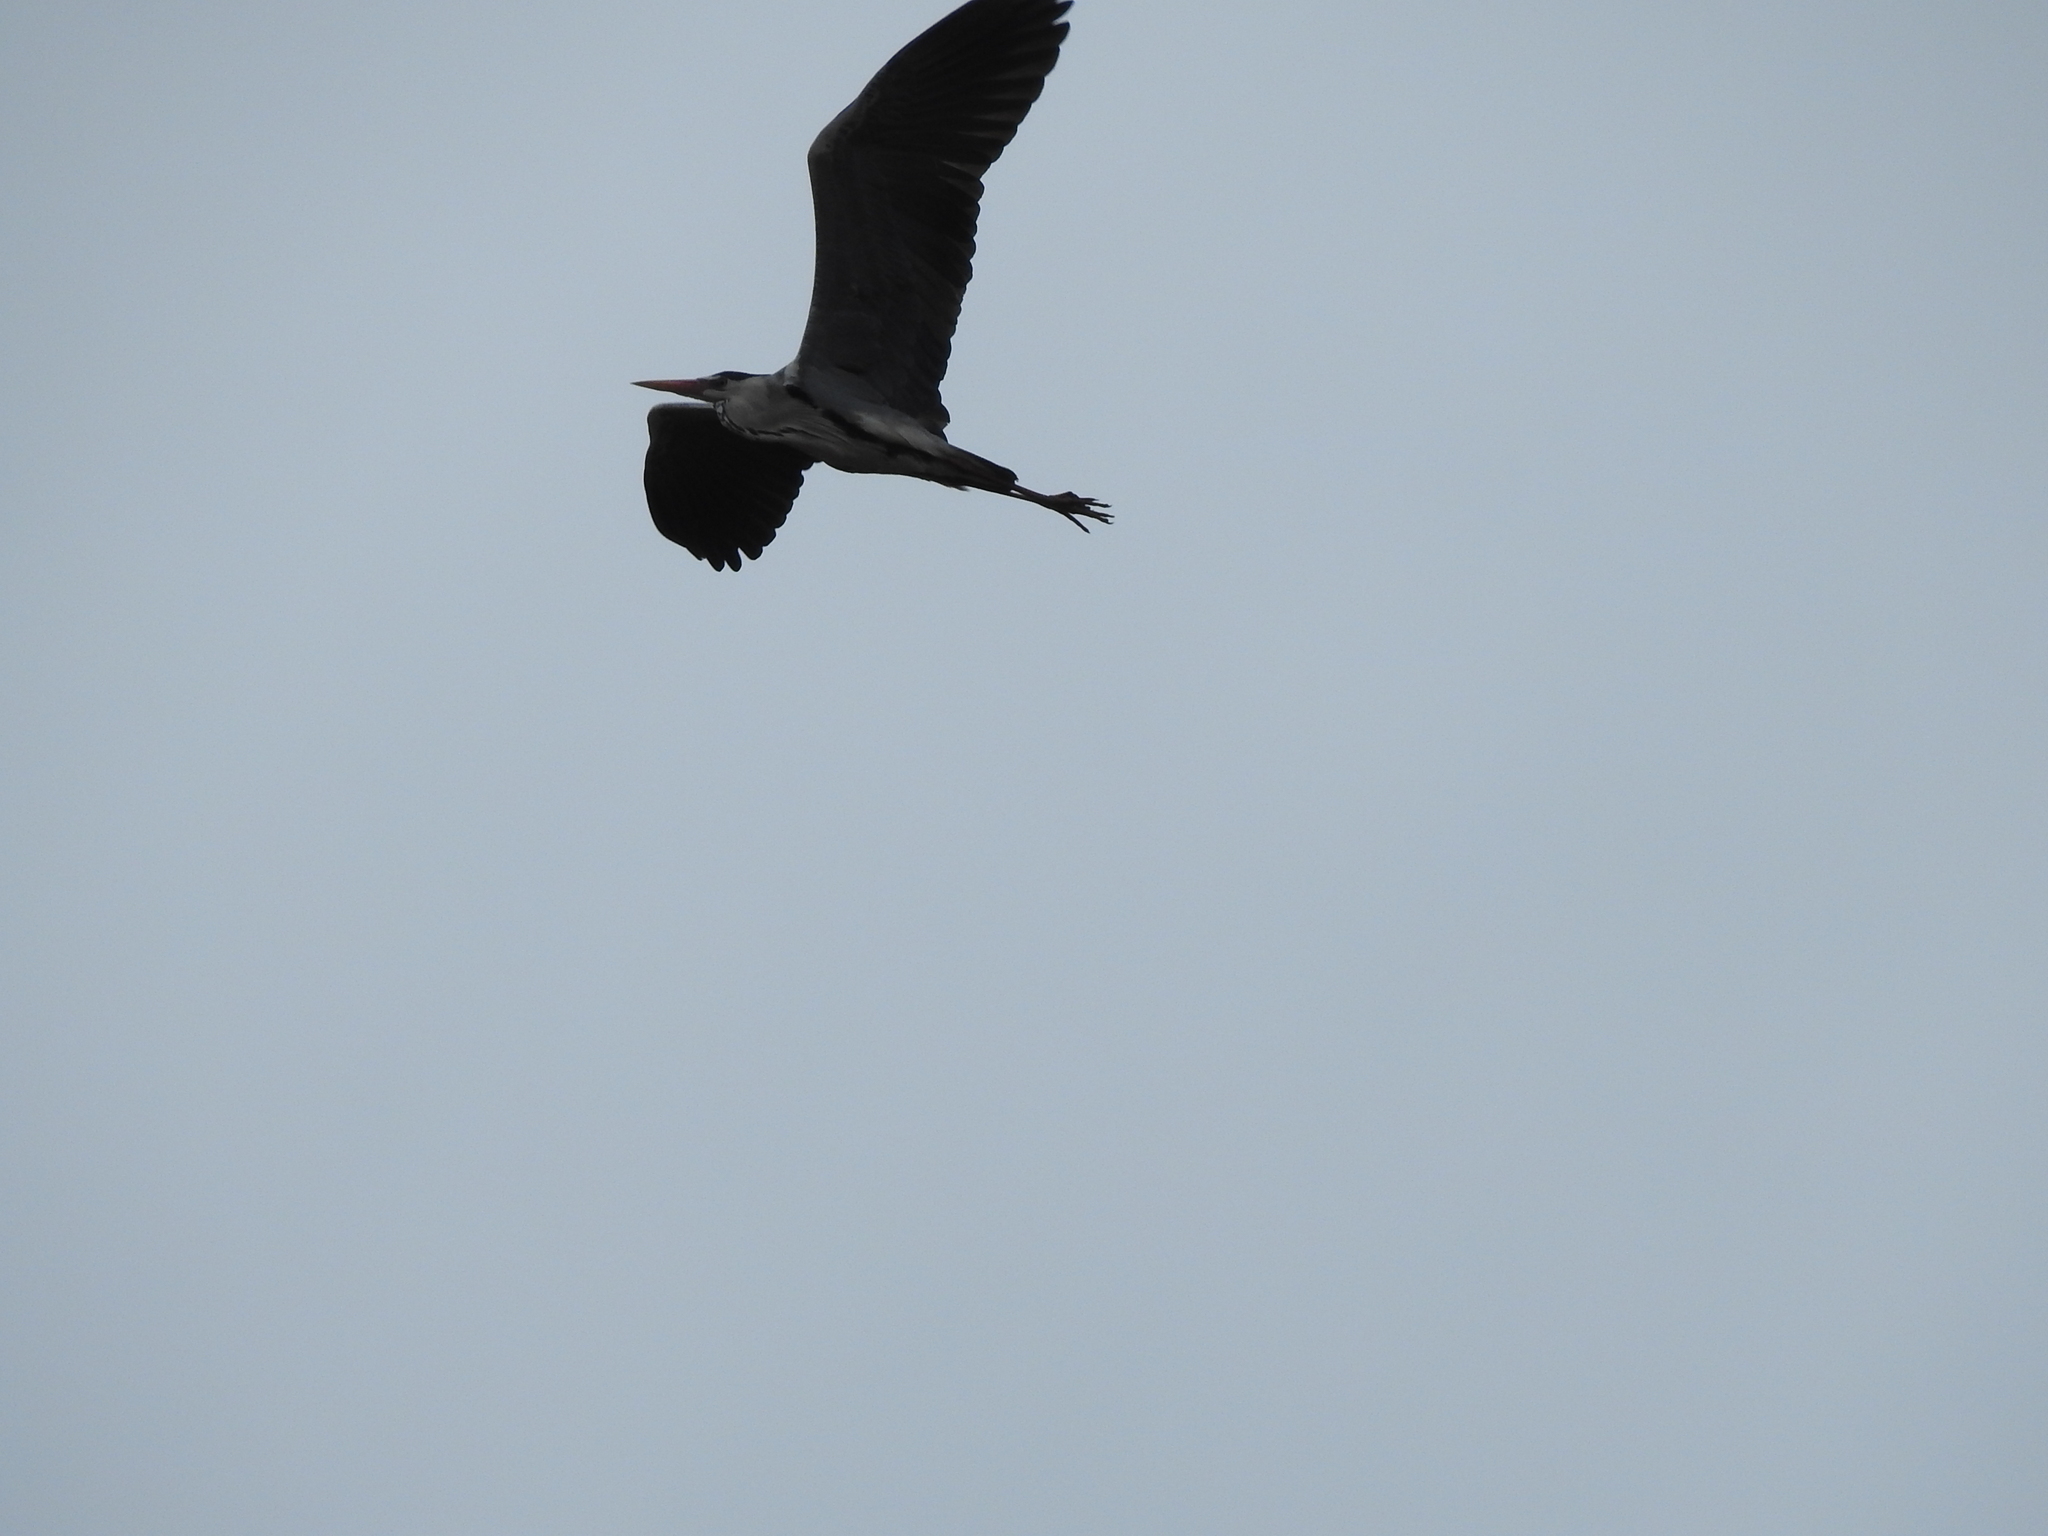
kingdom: Animalia
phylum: Chordata
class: Aves
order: Pelecaniformes
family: Ardeidae
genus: Ardea
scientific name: Ardea cinerea
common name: Grey heron
